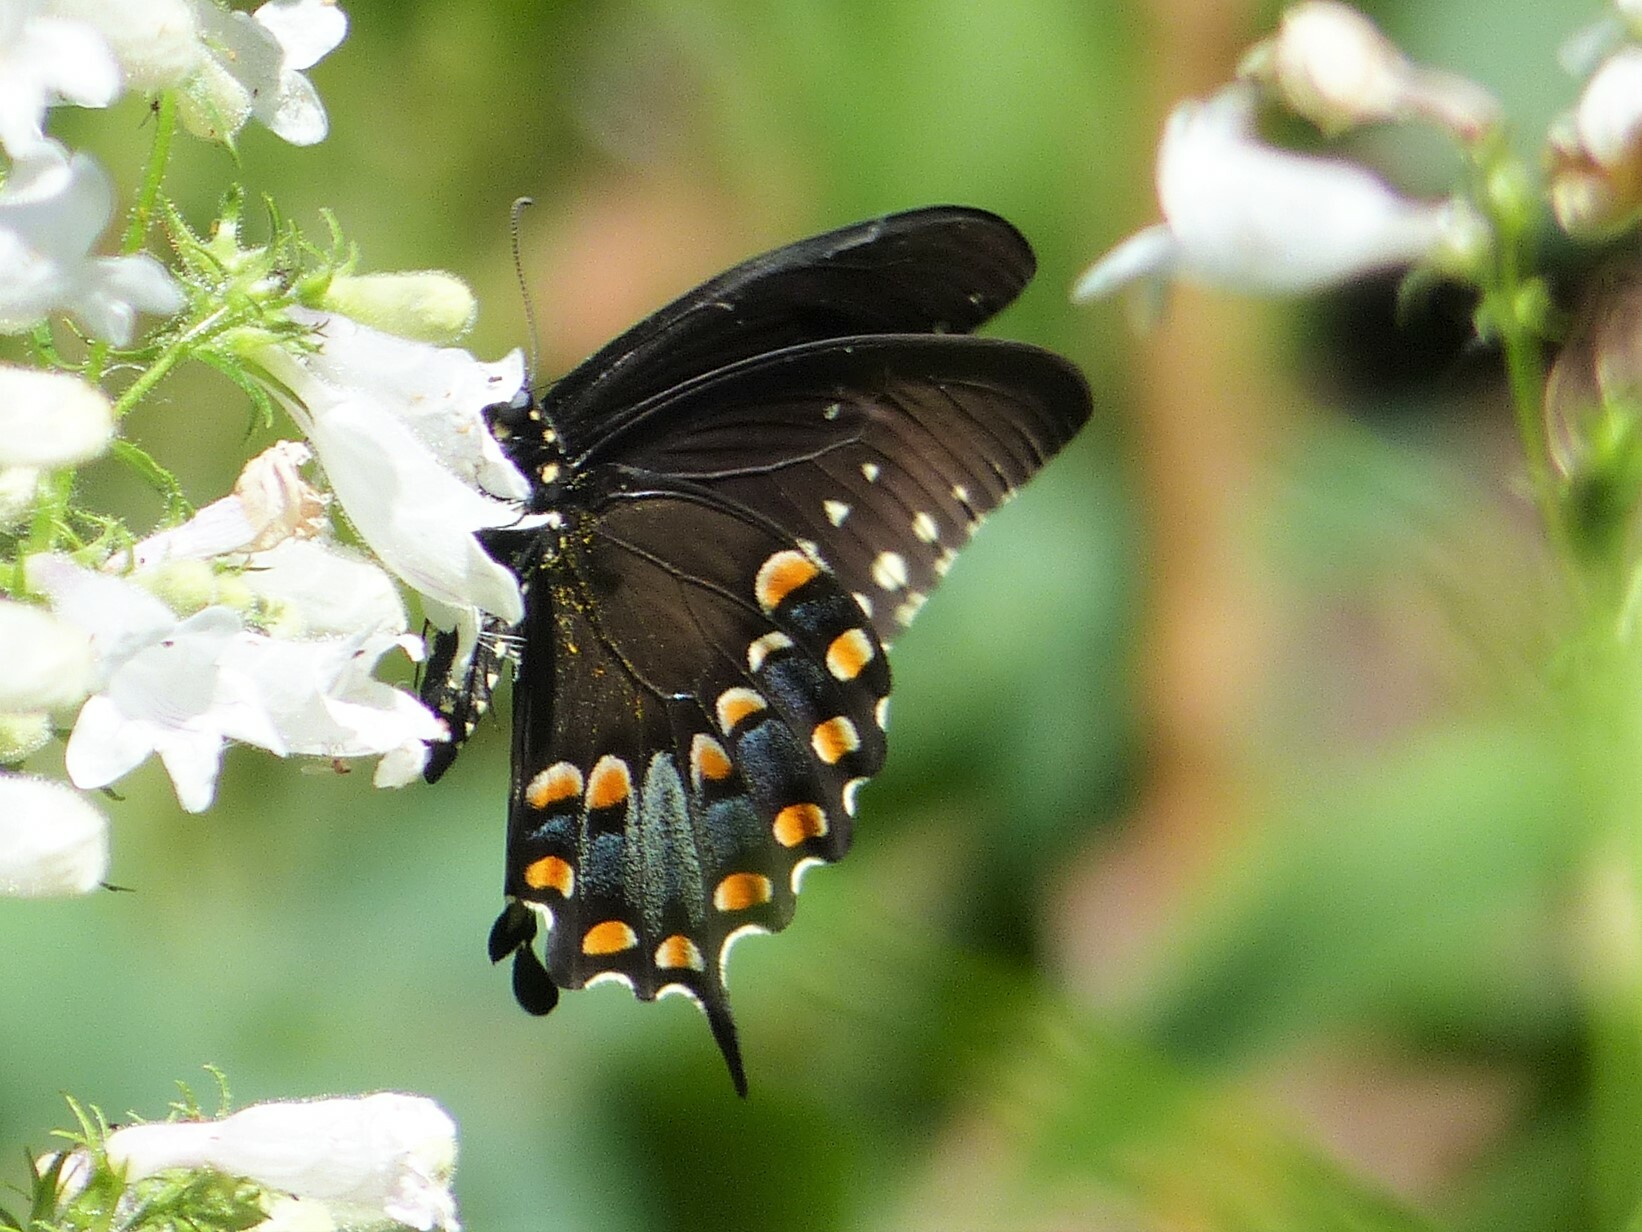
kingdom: Animalia
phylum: Arthropoda
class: Insecta
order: Lepidoptera
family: Papilionidae
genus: Papilio
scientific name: Papilio troilus
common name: Spicebush swallowtail
